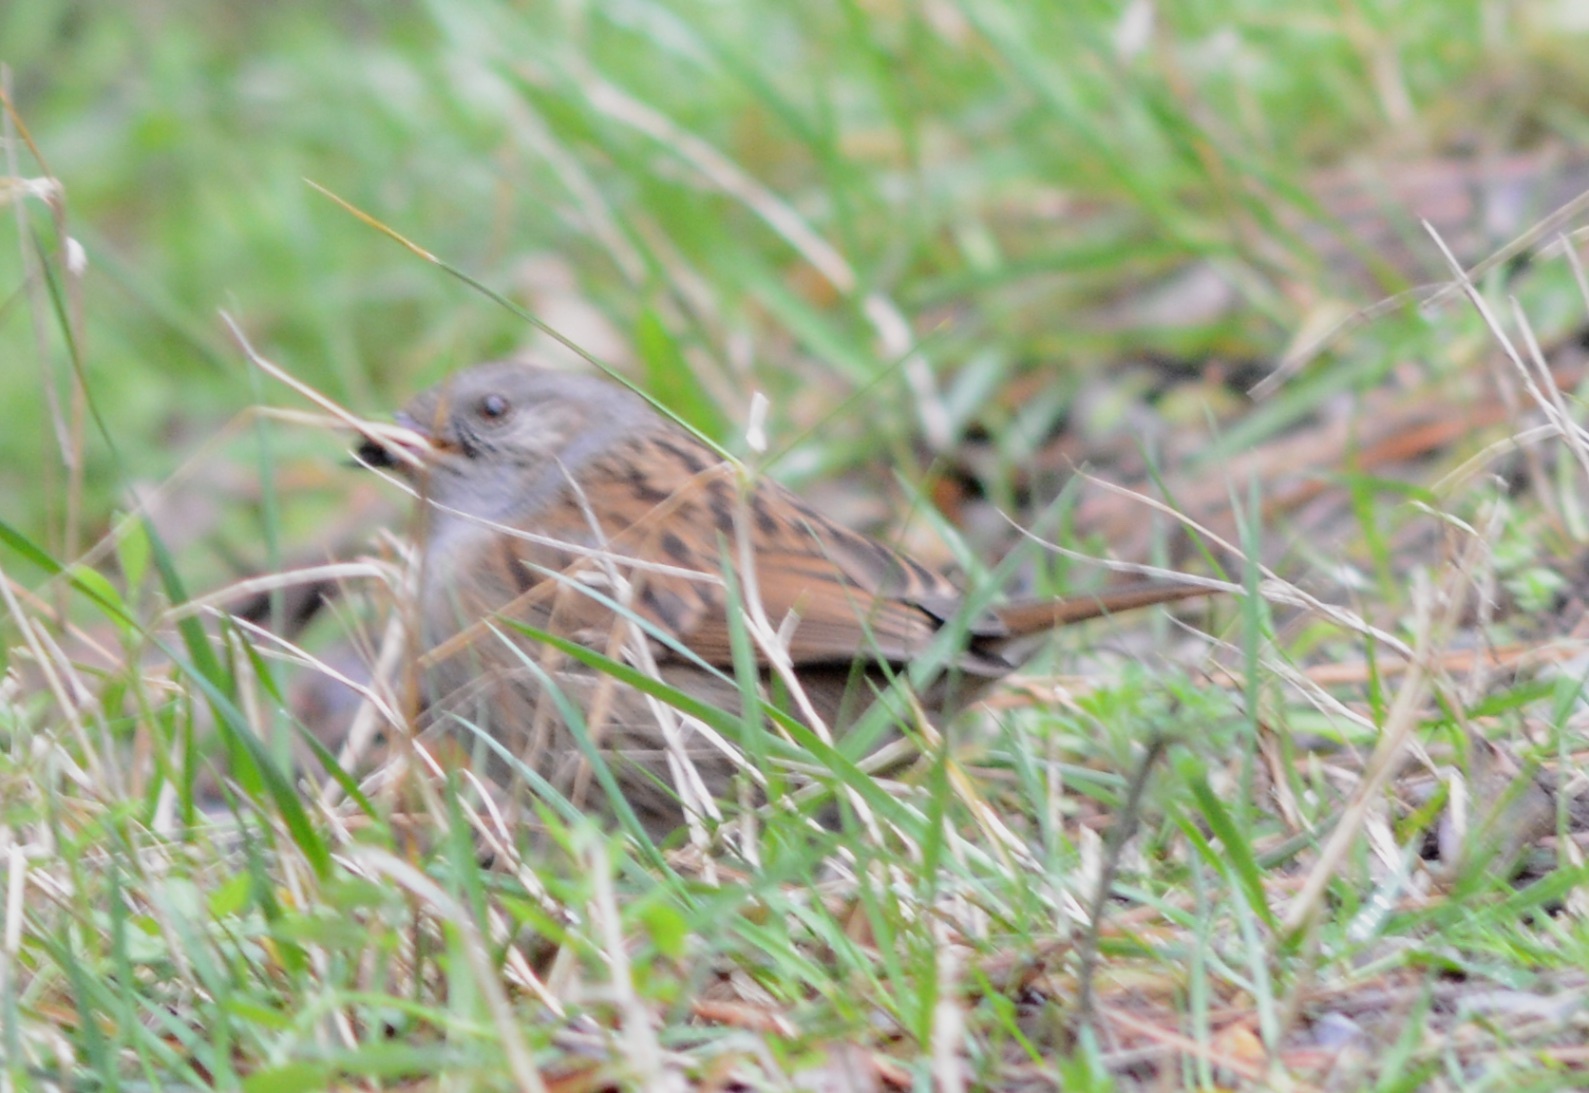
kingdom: Animalia
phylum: Chordata
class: Aves
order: Passeriformes
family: Prunellidae
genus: Prunella
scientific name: Prunella modularis
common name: Dunnock
